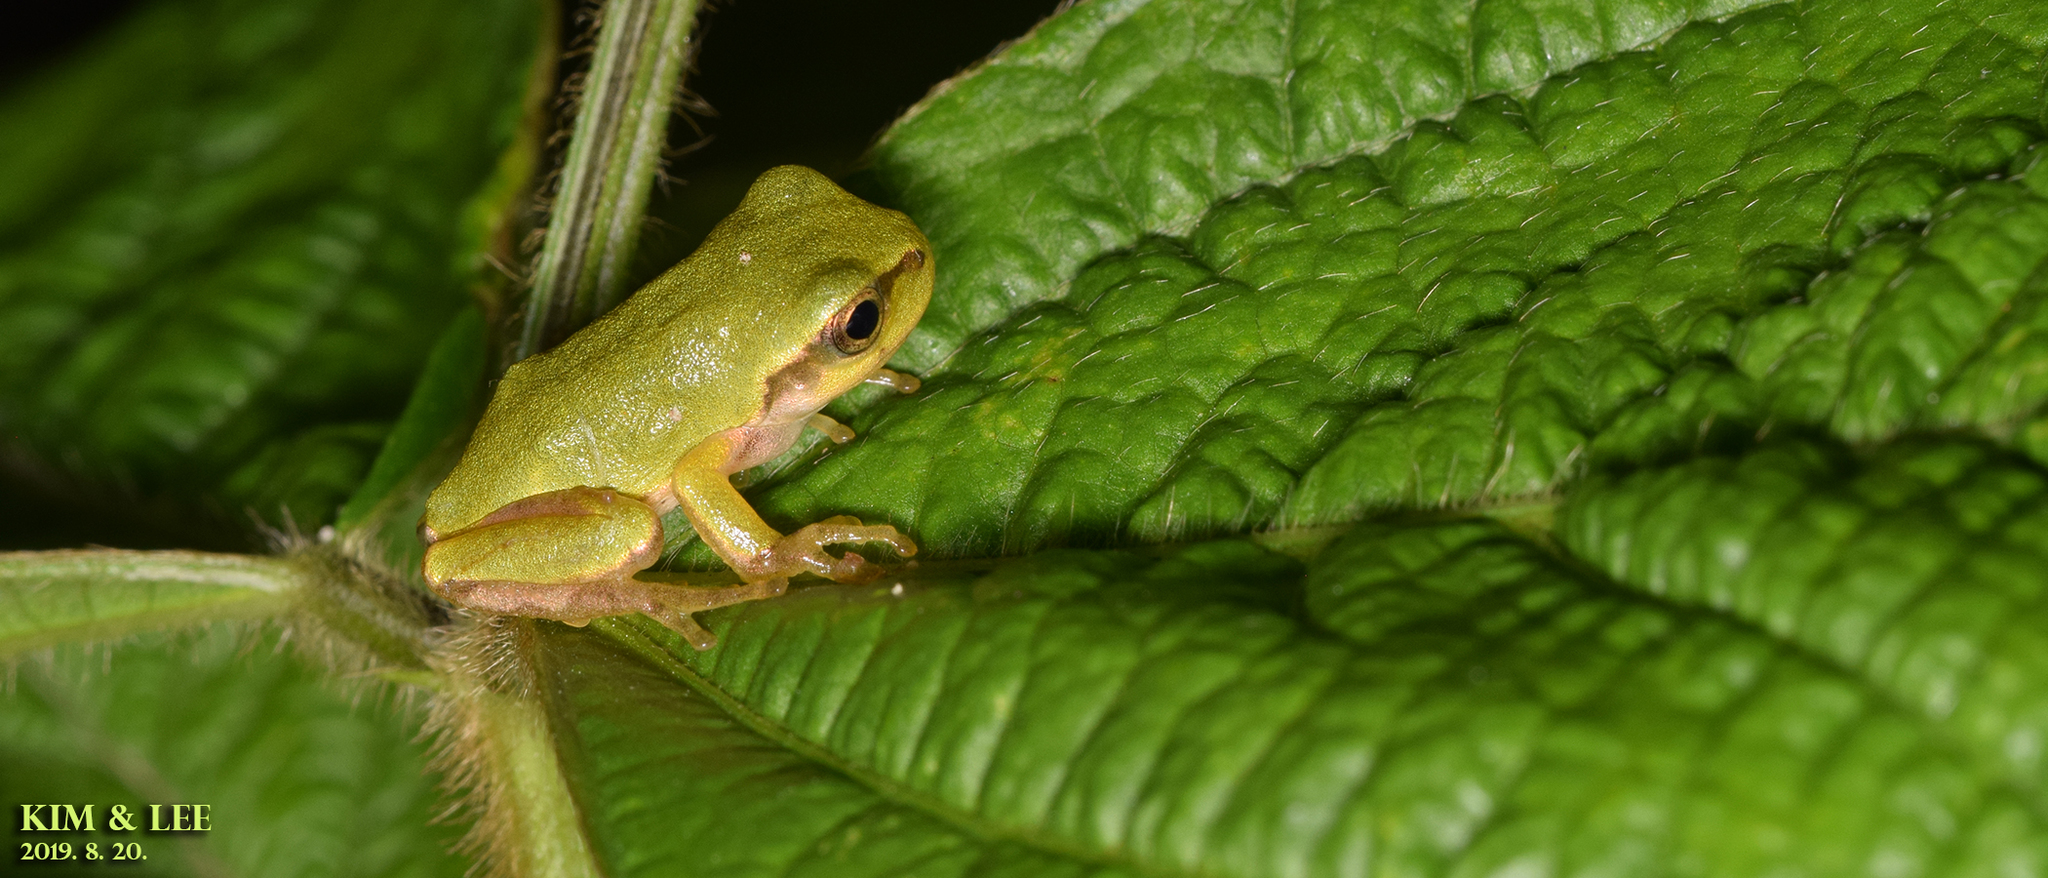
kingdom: Animalia
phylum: Chordata
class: Amphibia
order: Anura
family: Hylidae
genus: Dryophytes
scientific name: Dryophytes japonicus
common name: Japanese treefrog
